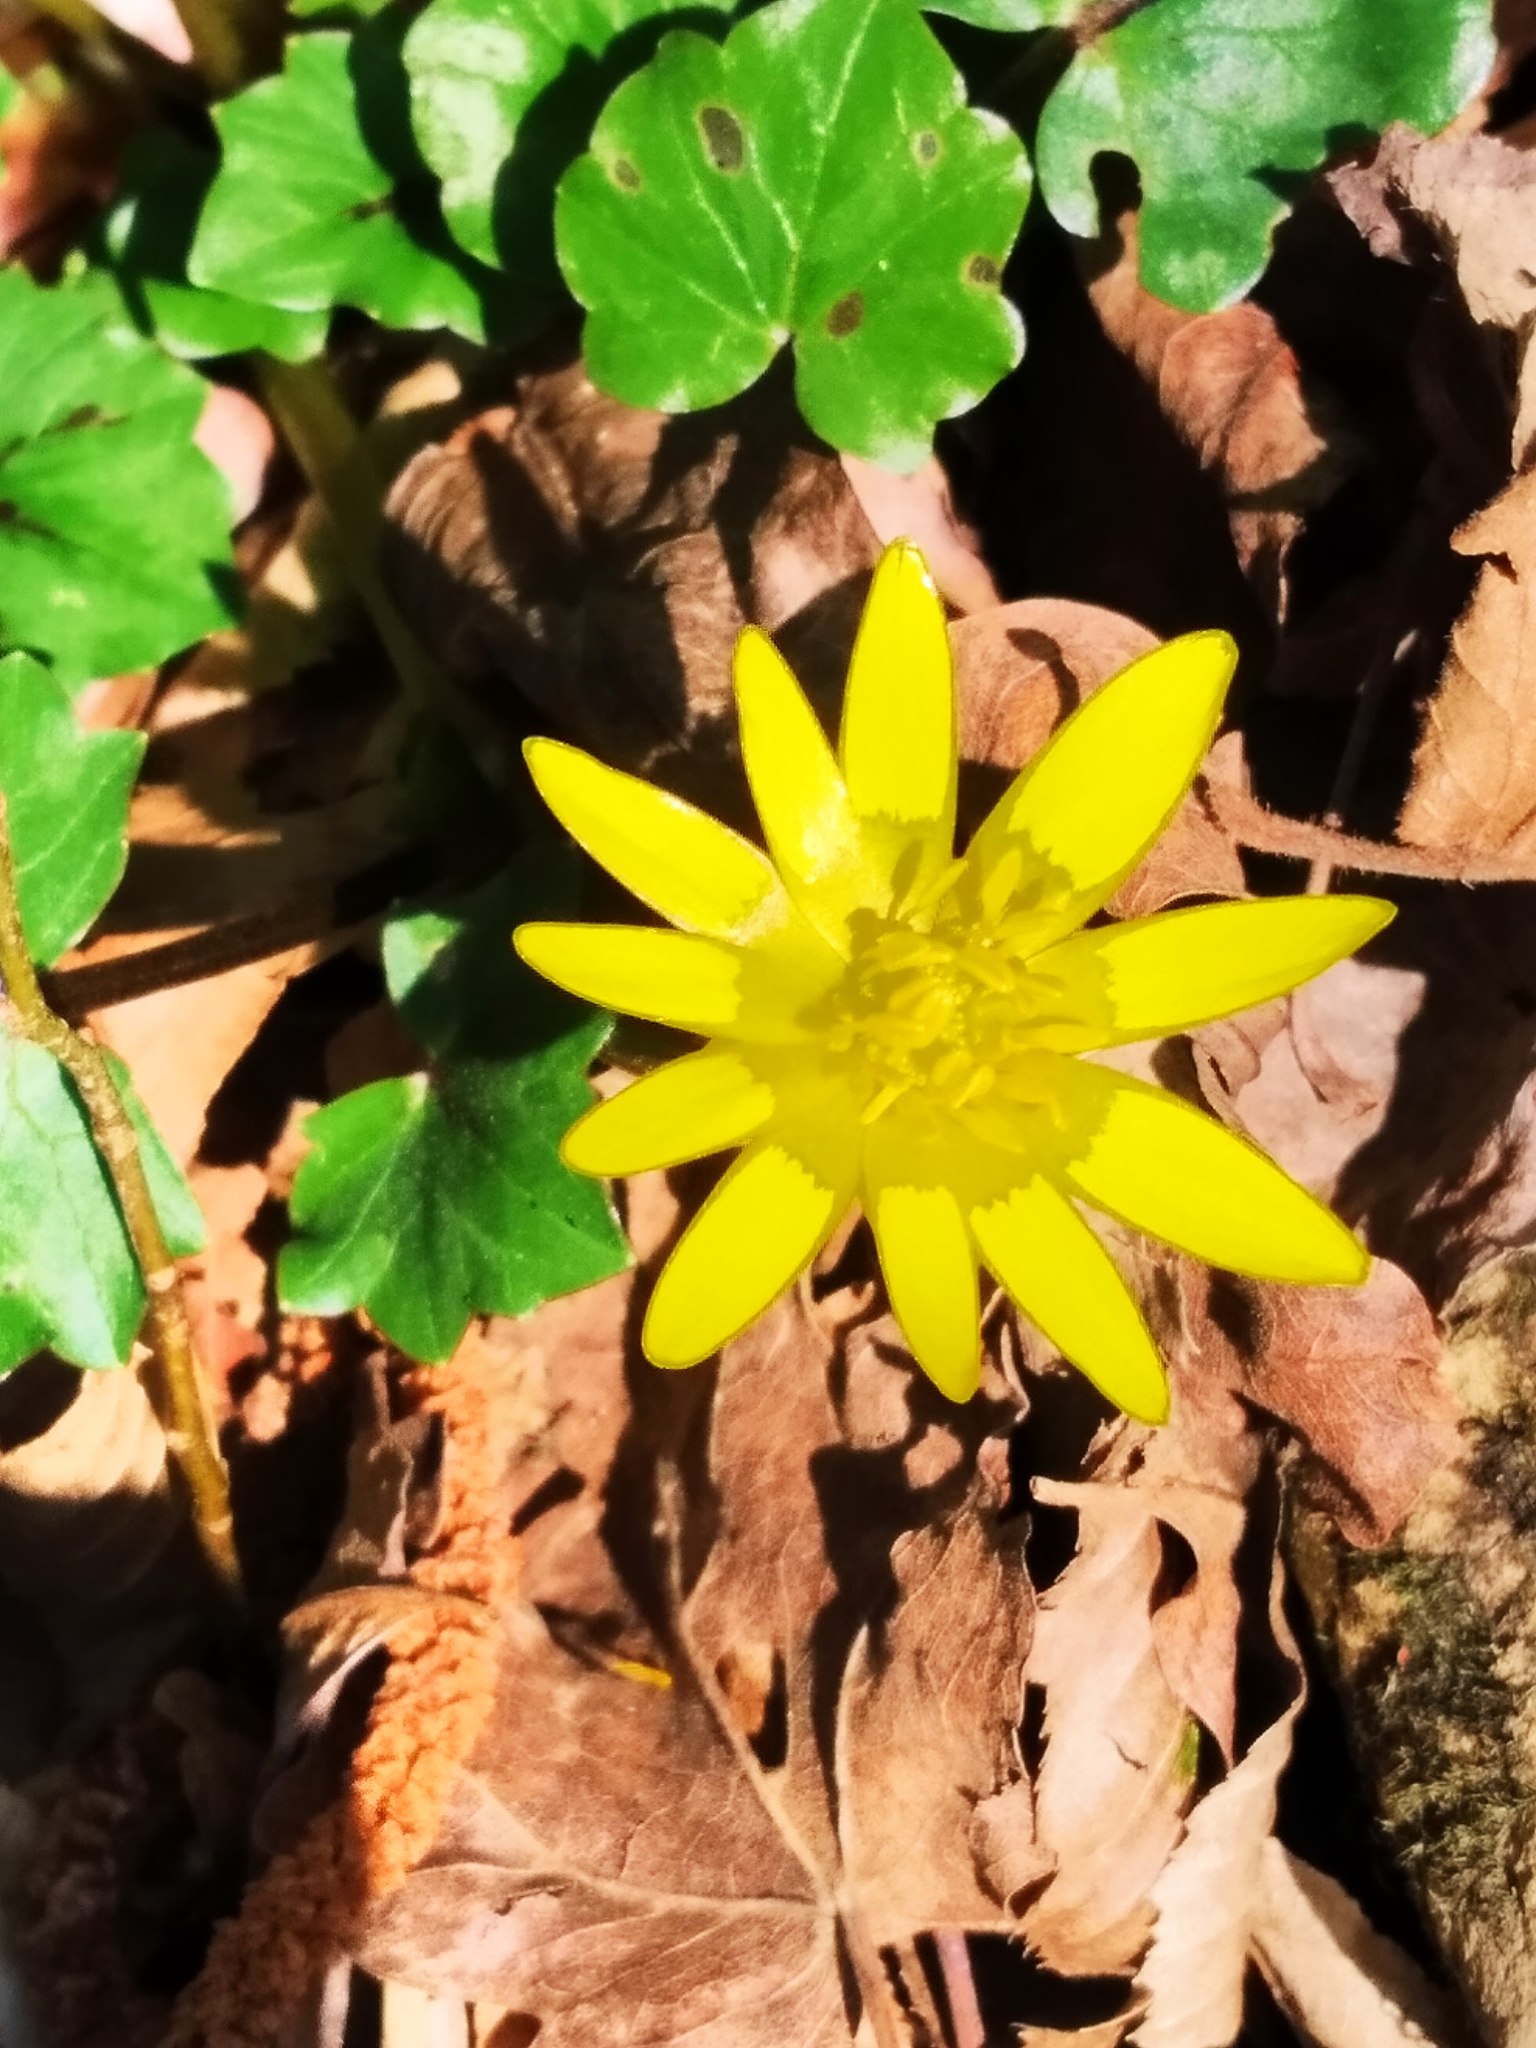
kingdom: Plantae
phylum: Tracheophyta
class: Magnoliopsida
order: Ranunculales
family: Ranunculaceae
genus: Ficaria
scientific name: Ficaria verna
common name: Lesser celandine
